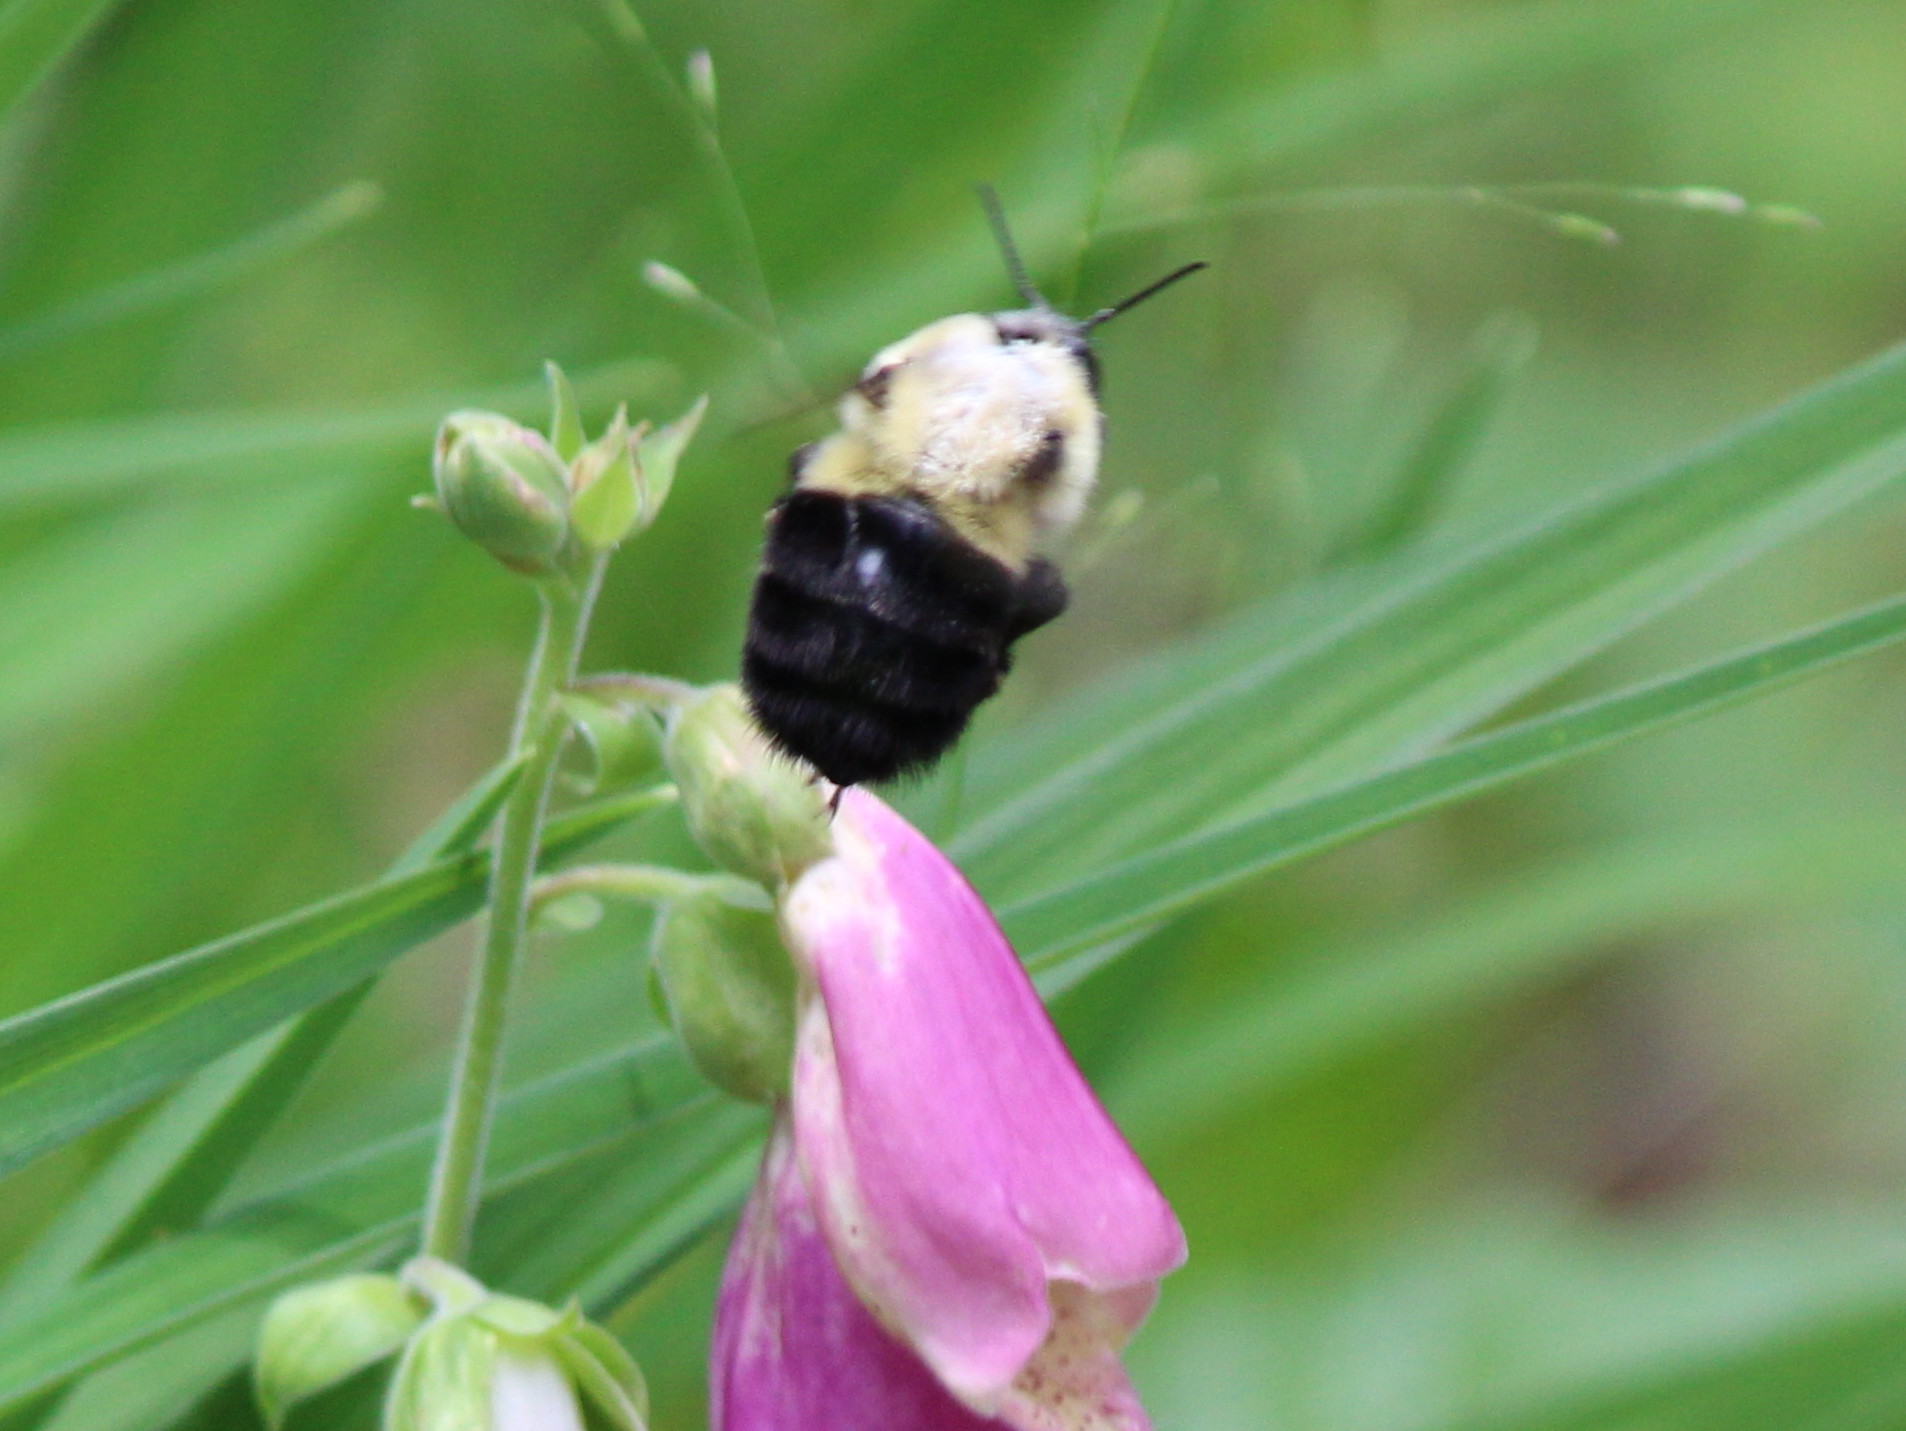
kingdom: Animalia
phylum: Arthropoda
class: Insecta
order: Hymenoptera
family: Apidae
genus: Bombus
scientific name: Bombus impatiens
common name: Common eastern bumble bee
